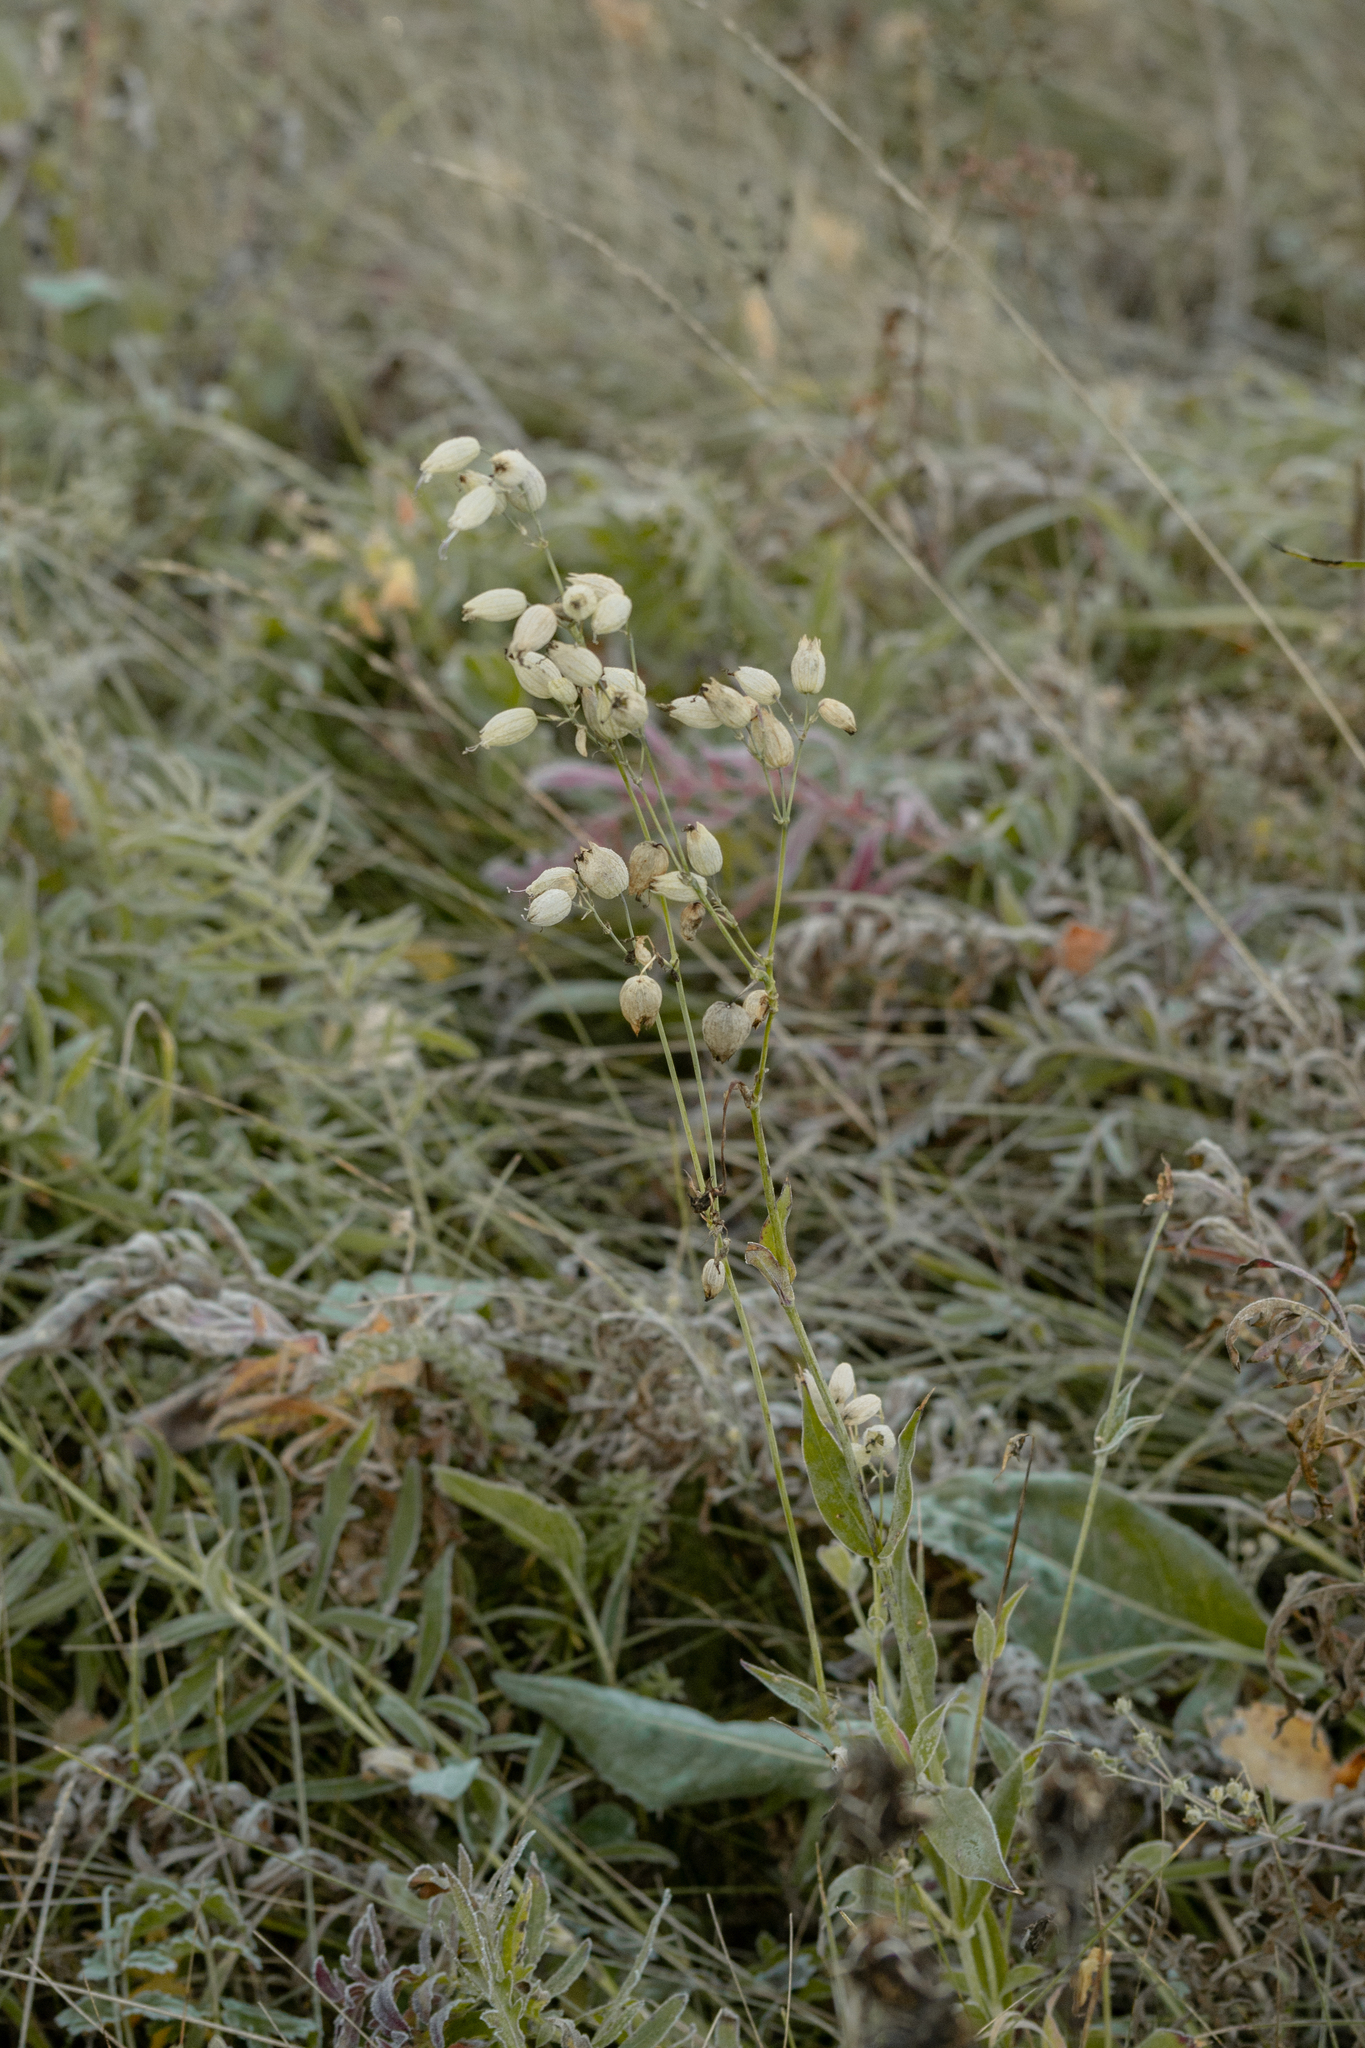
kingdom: Plantae
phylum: Tracheophyta
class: Magnoliopsida
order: Caryophyllales
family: Caryophyllaceae
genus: Silene
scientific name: Silene vulgaris
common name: Bladder campion
